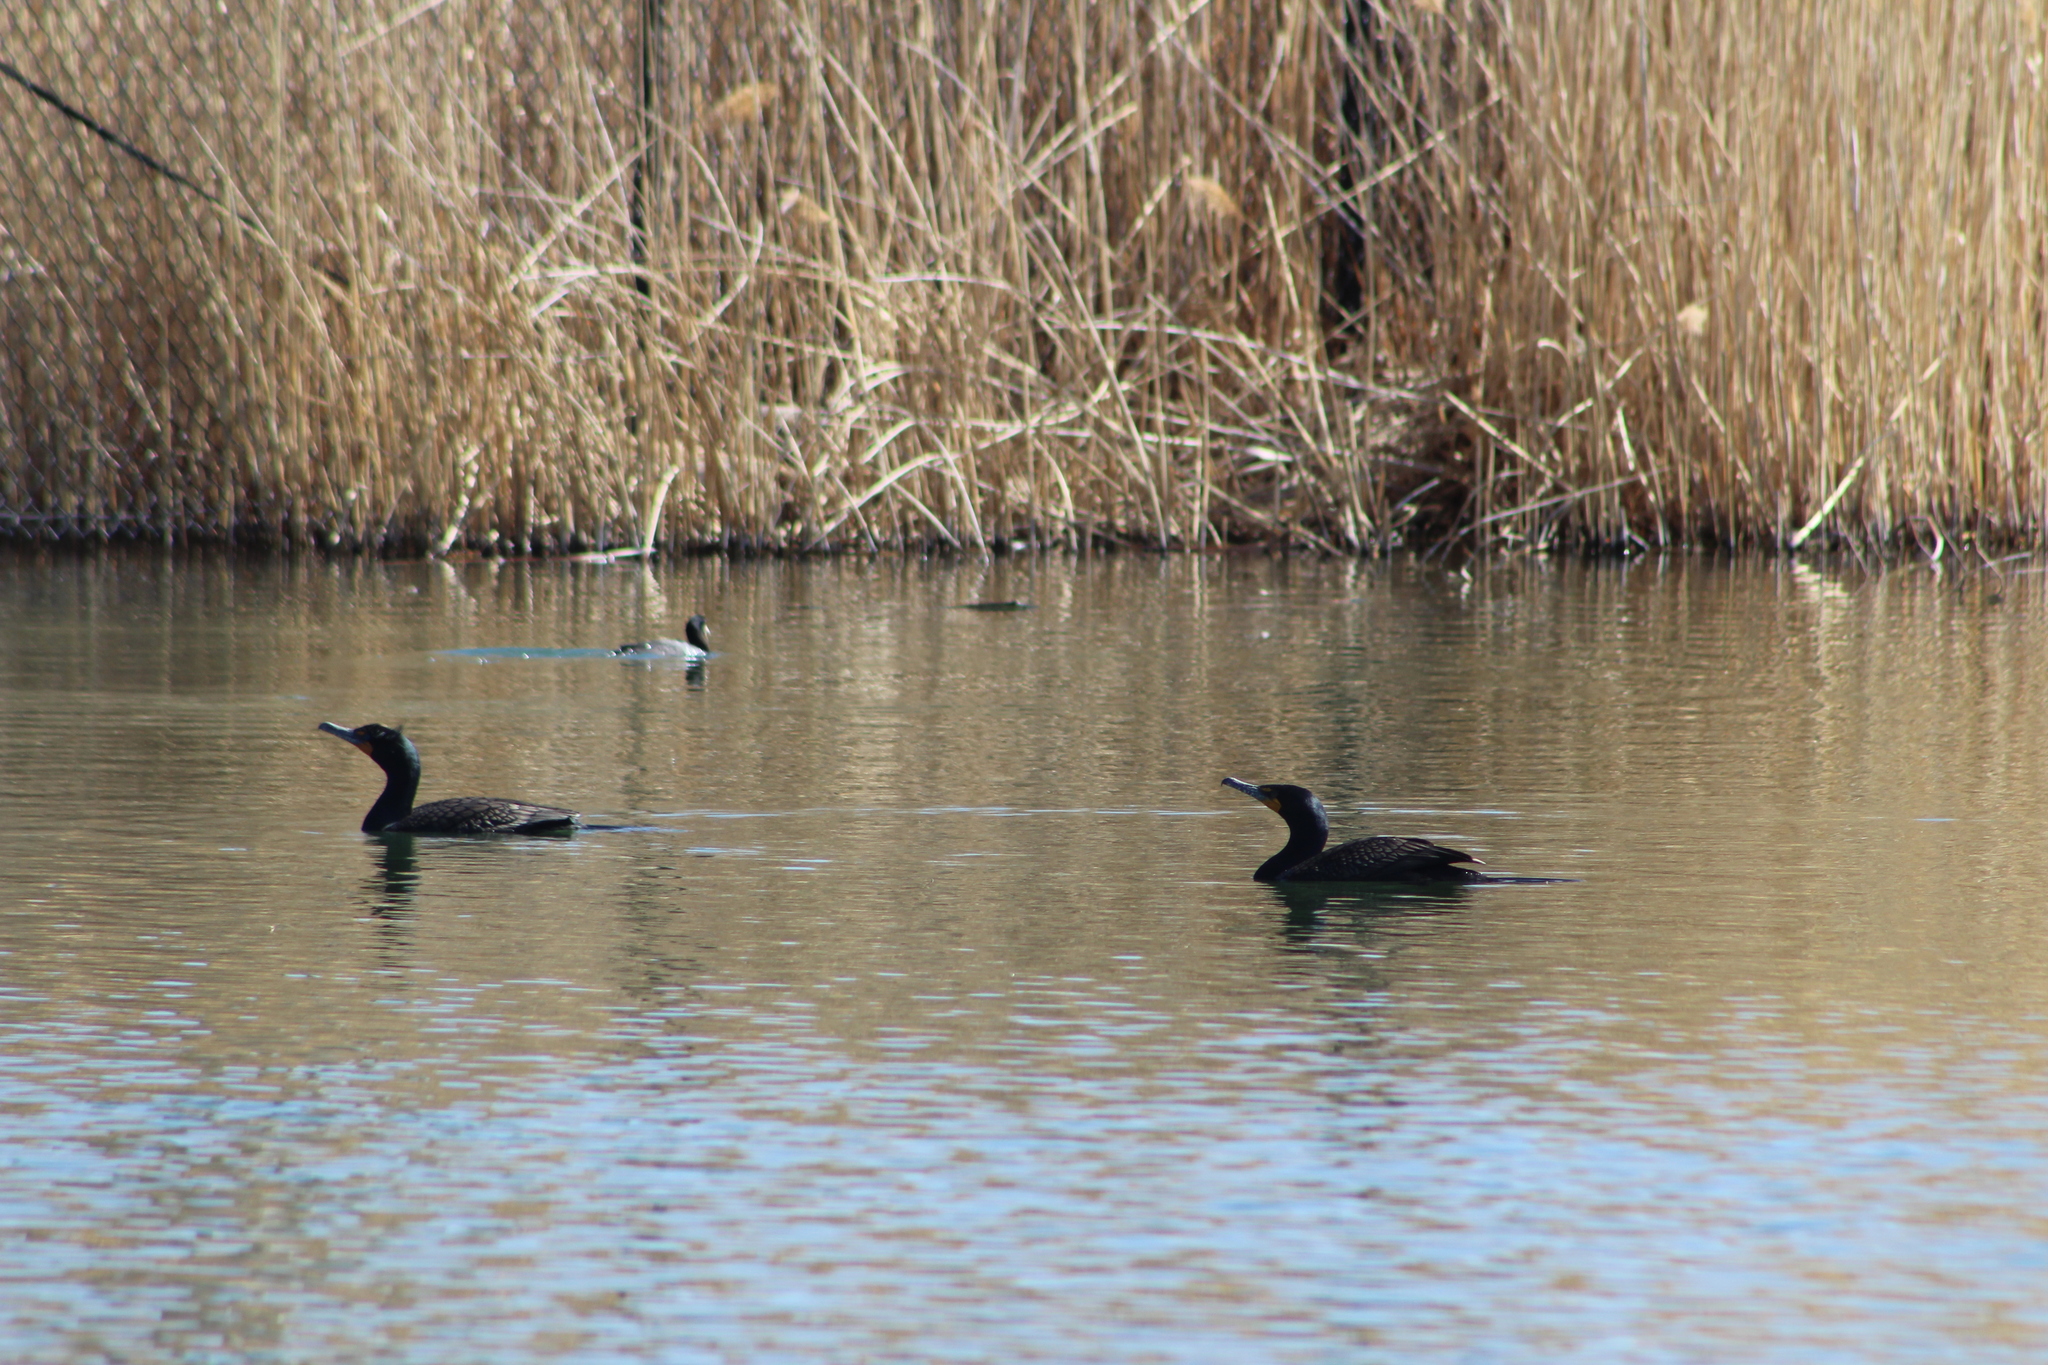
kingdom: Animalia
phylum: Chordata
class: Aves
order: Suliformes
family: Phalacrocoracidae
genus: Phalacrocorax
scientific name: Phalacrocorax auritus
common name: Double-crested cormorant
